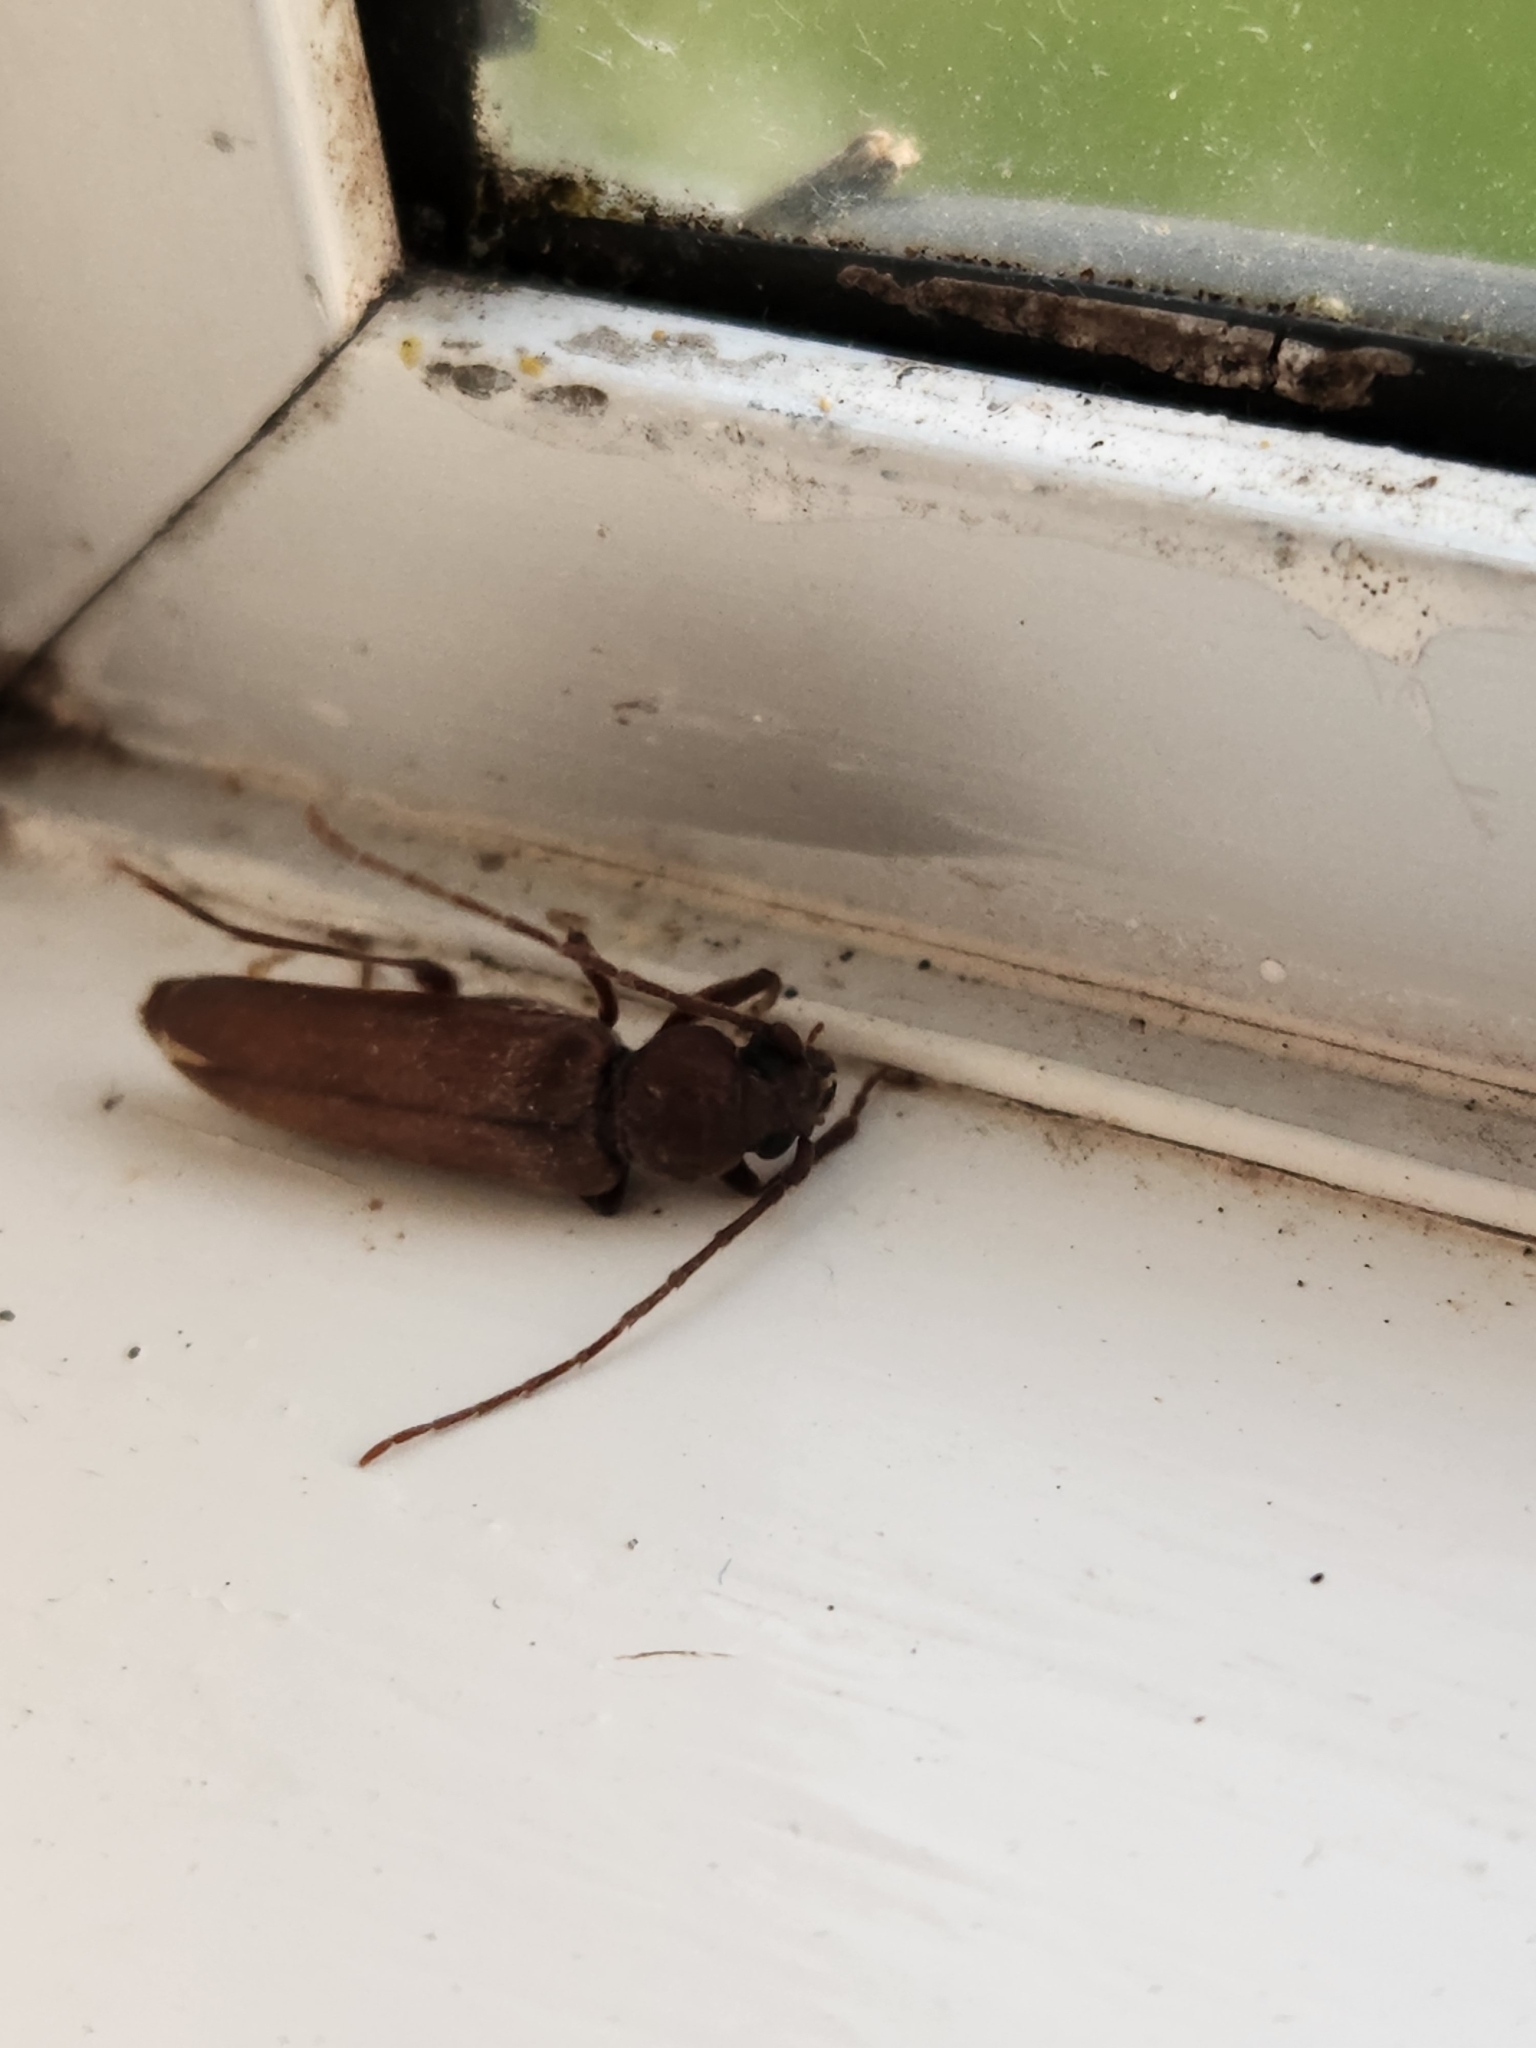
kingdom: Animalia
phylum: Arthropoda
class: Insecta
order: Coleoptera
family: Cerambycidae
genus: Arhopalus
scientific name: Arhopalus ferus
